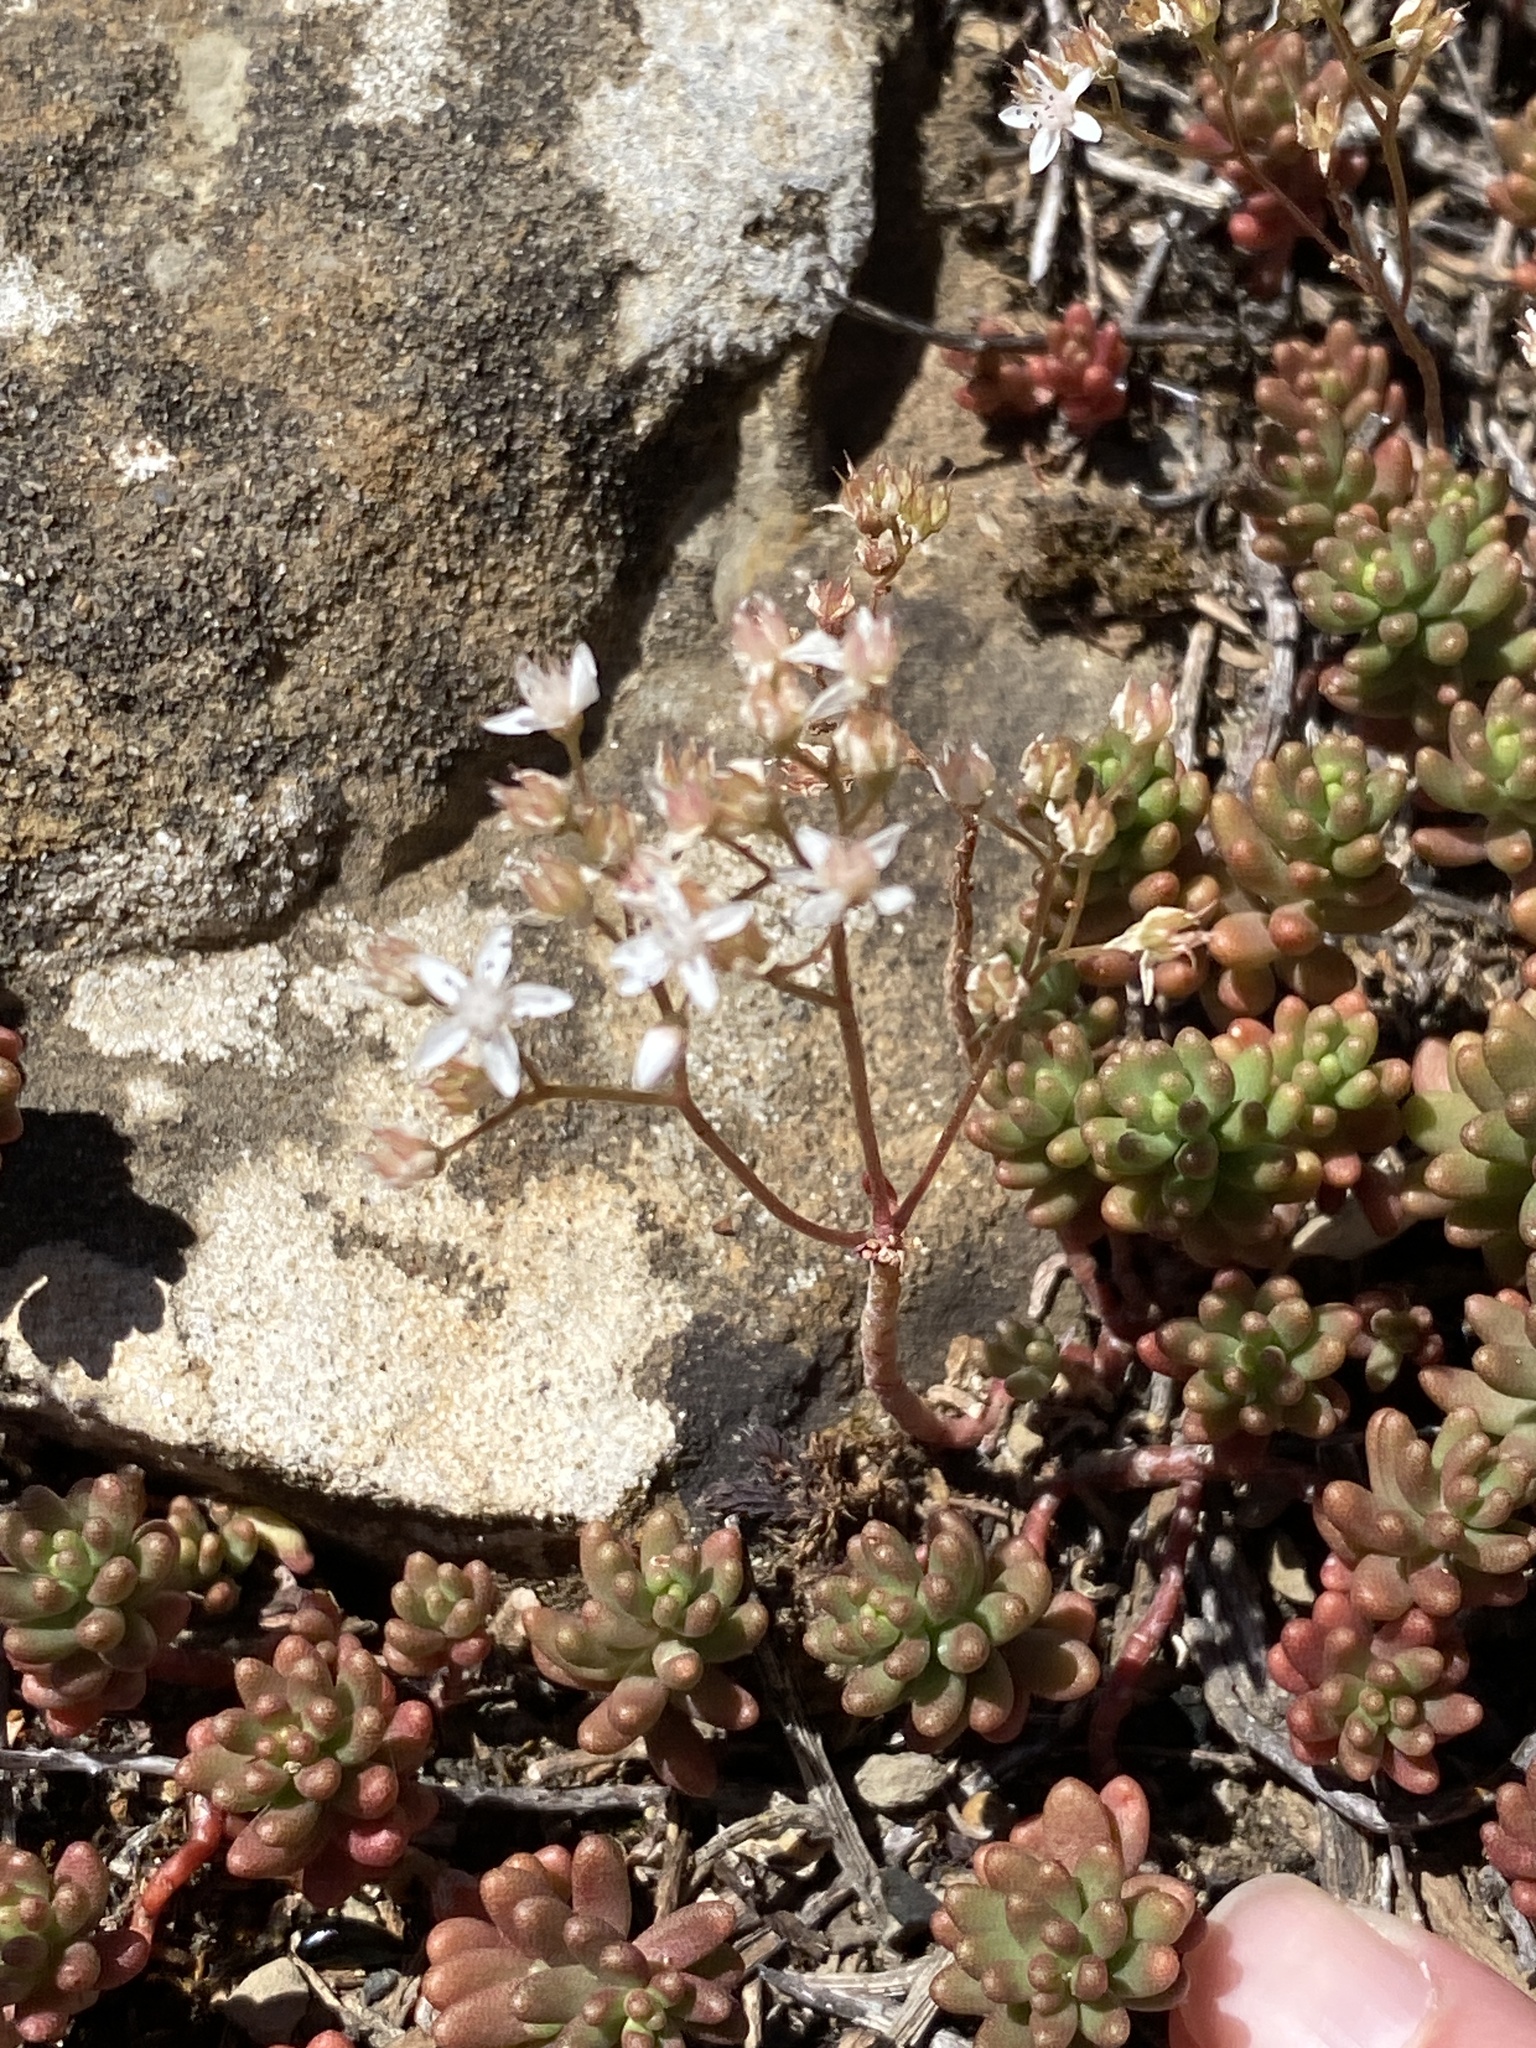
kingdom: Plantae
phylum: Tracheophyta
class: Magnoliopsida
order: Saxifragales
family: Crassulaceae
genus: Sedum
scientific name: Sedum album
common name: White stonecrop
